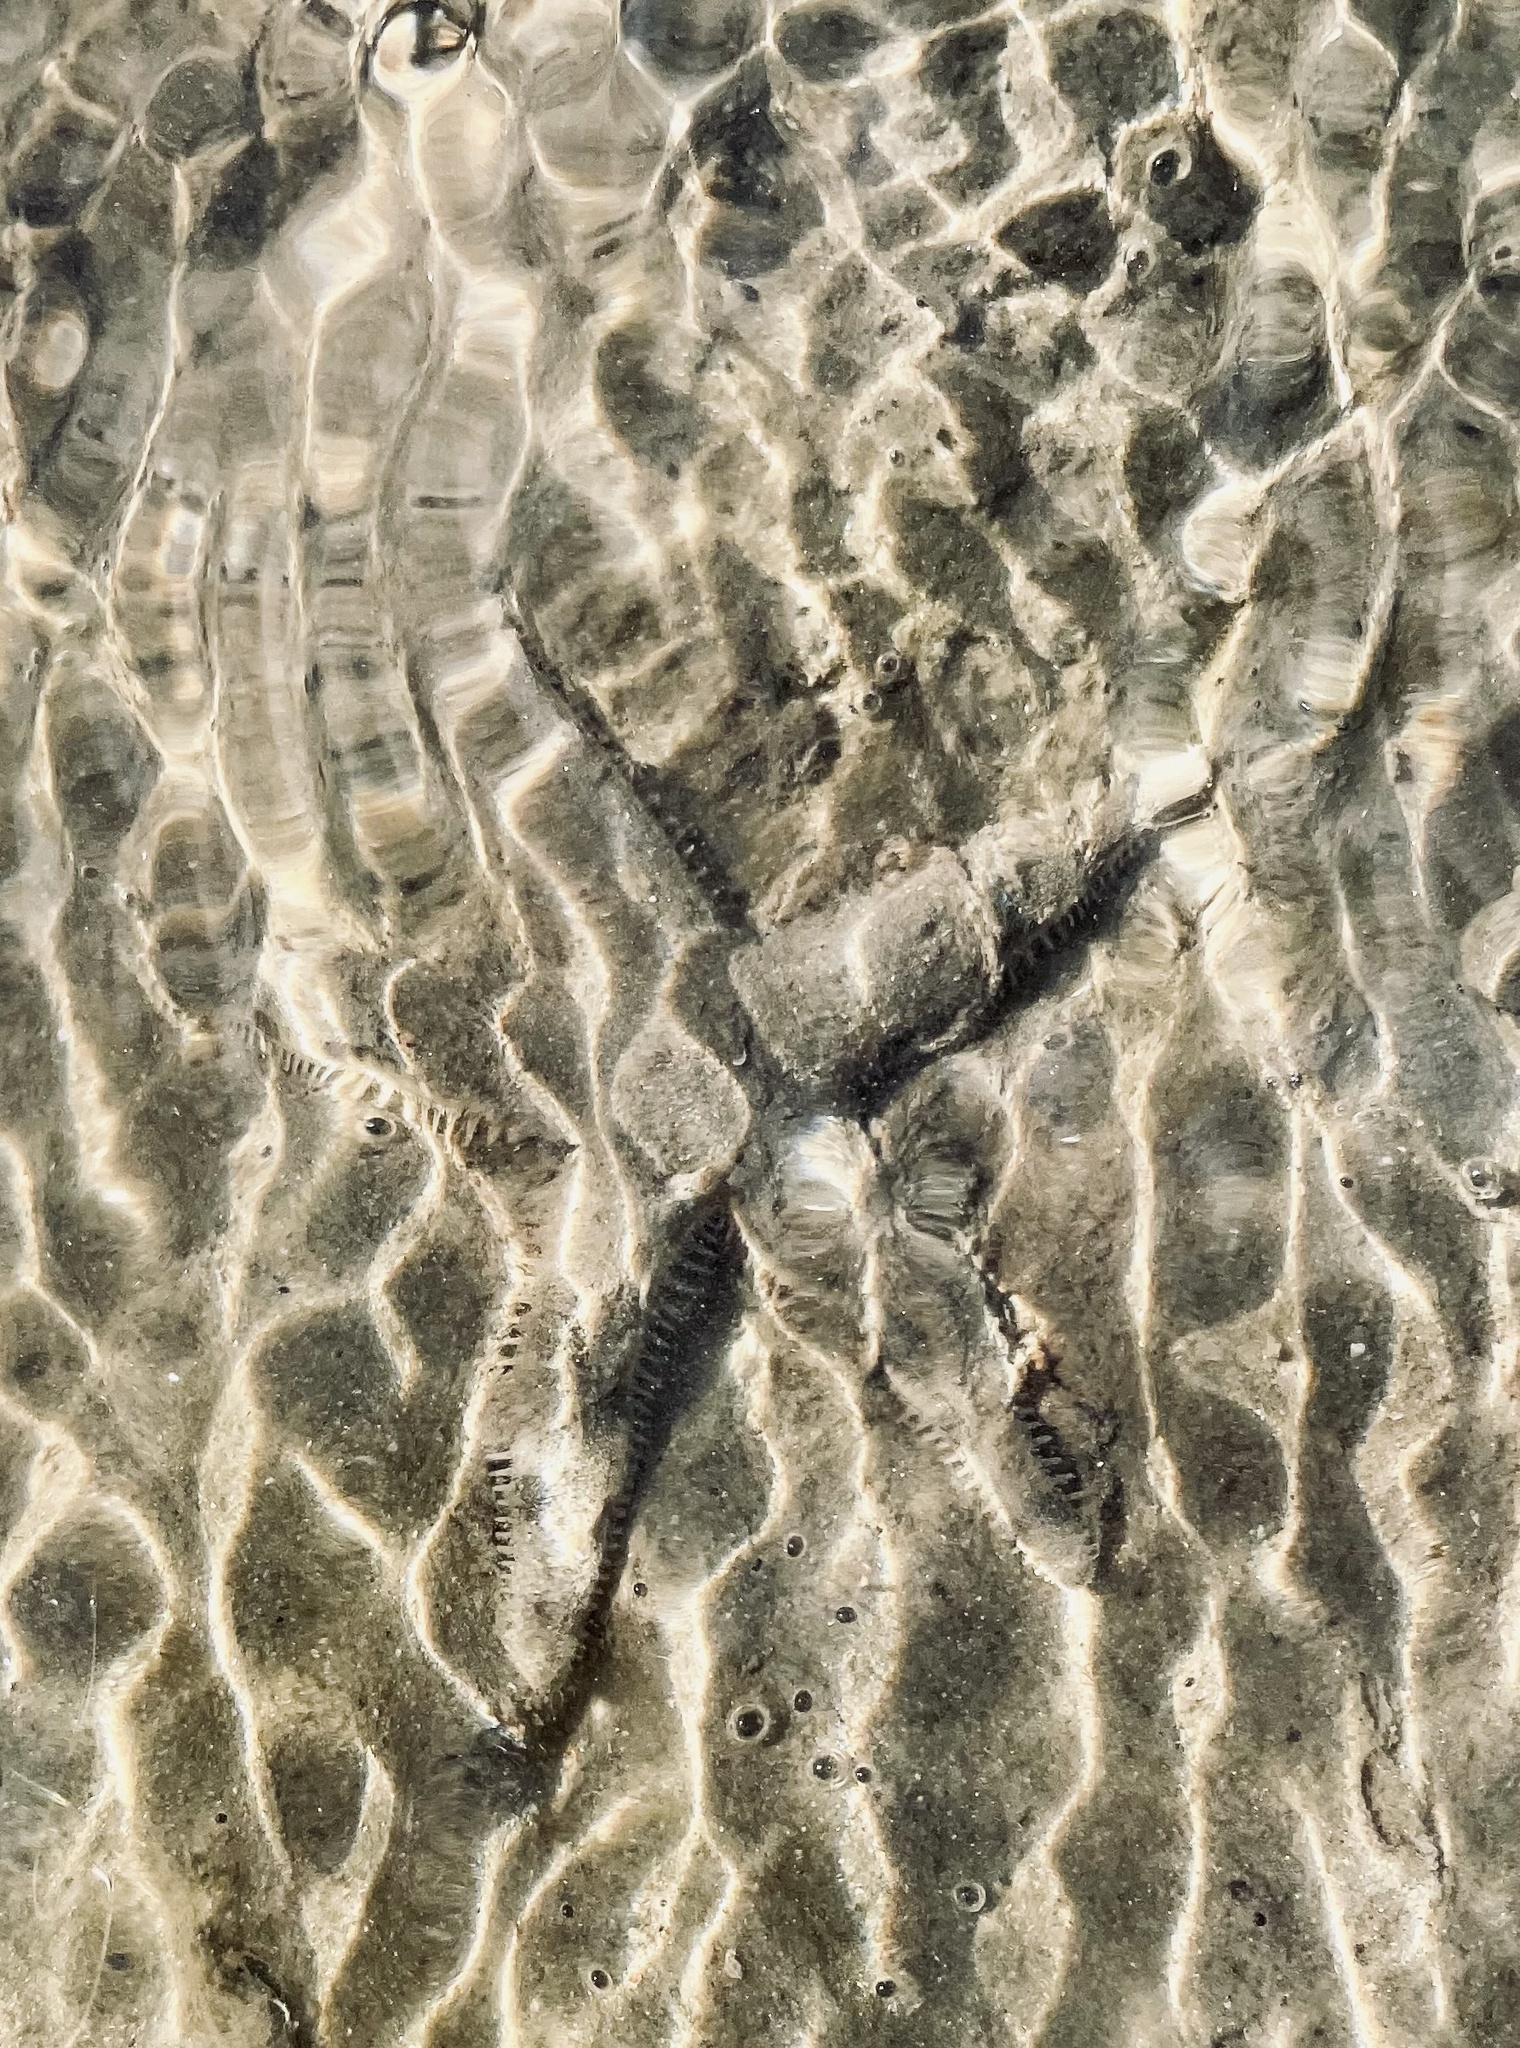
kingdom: Animalia
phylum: Echinodermata
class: Asteroidea
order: Valvatida
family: Archasteridae
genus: Archaster
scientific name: Archaster typicus
